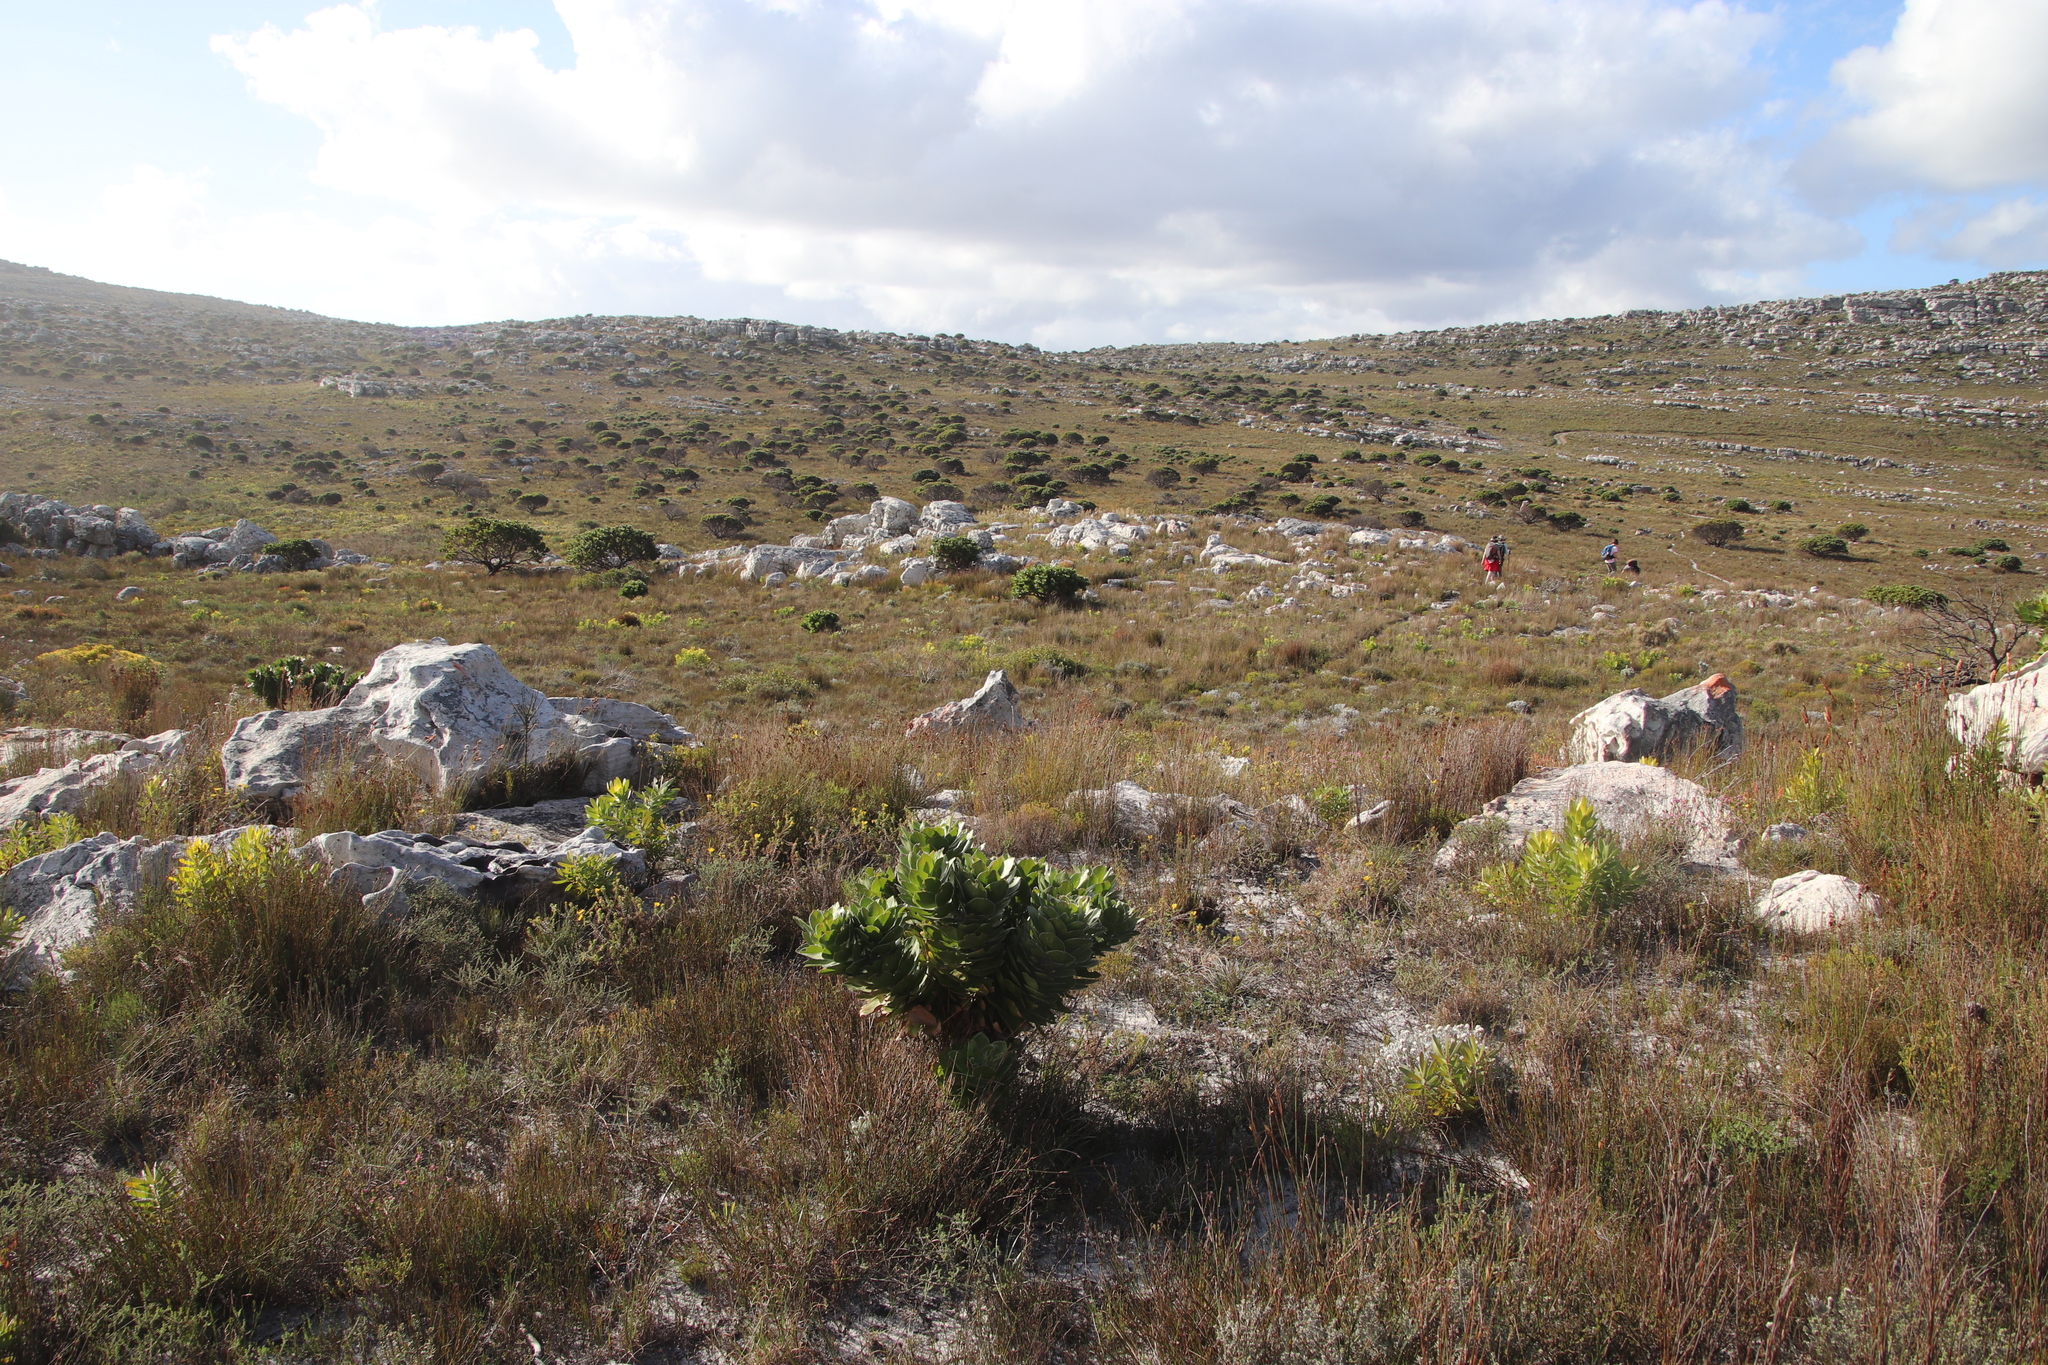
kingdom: Plantae
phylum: Tracheophyta
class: Magnoliopsida
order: Proteales
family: Proteaceae
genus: Mimetes
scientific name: Mimetes fimbriifolius
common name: Fringed bottlebrush
